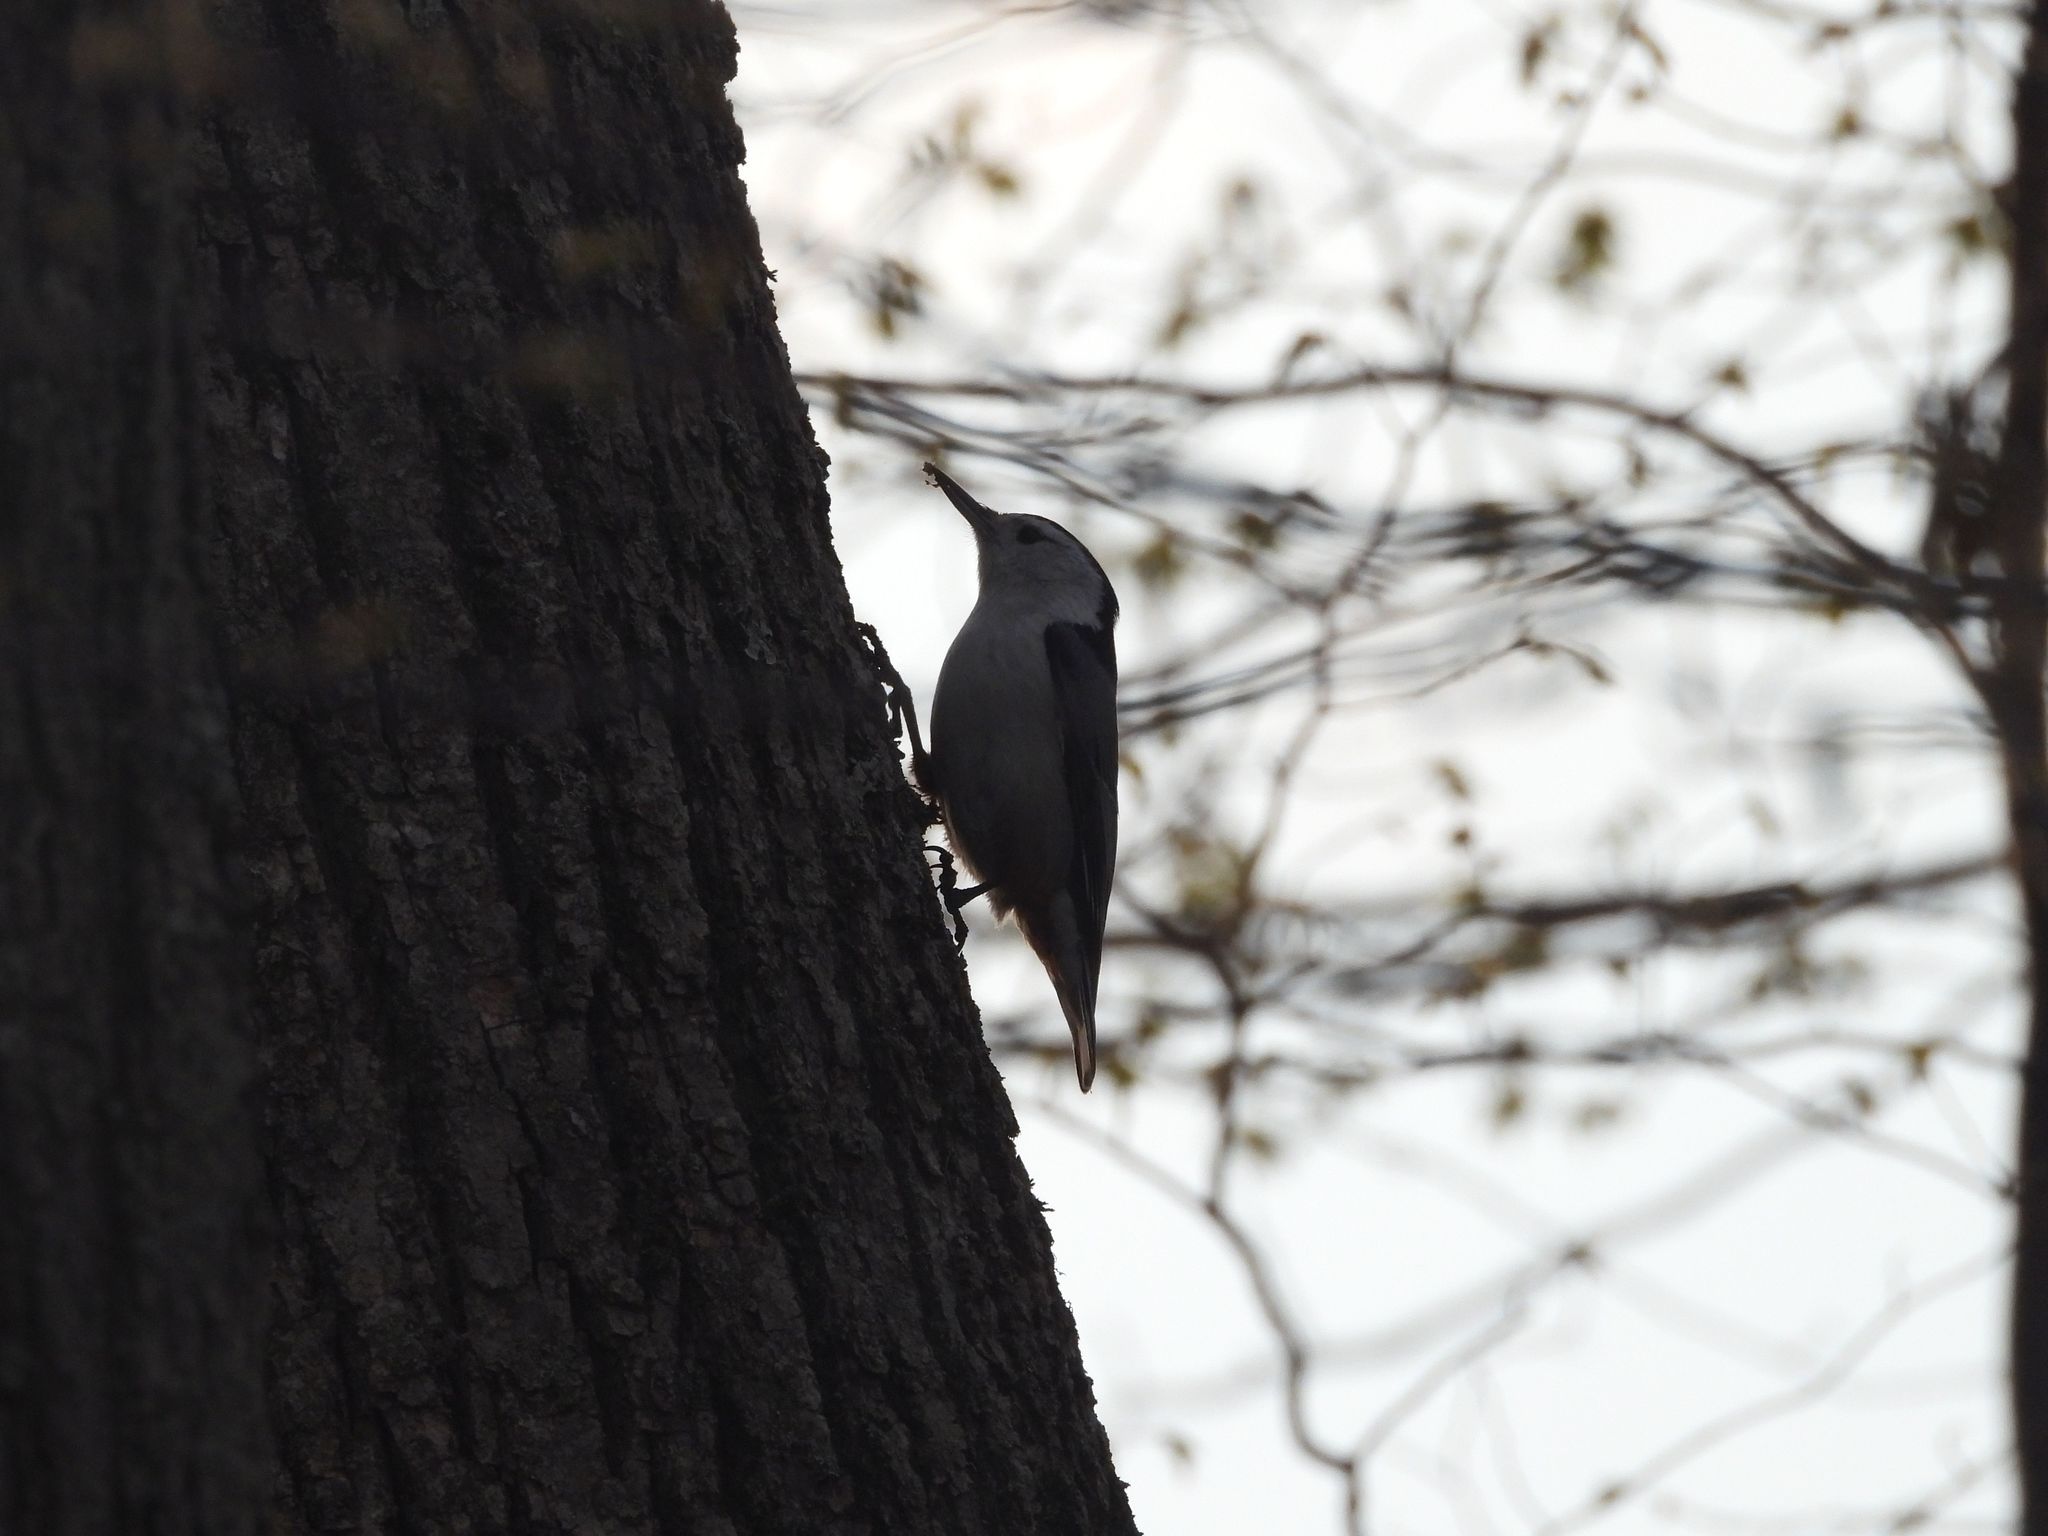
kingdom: Animalia
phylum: Chordata
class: Aves
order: Passeriformes
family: Sittidae
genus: Sitta
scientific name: Sitta carolinensis
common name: White-breasted nuthatch
